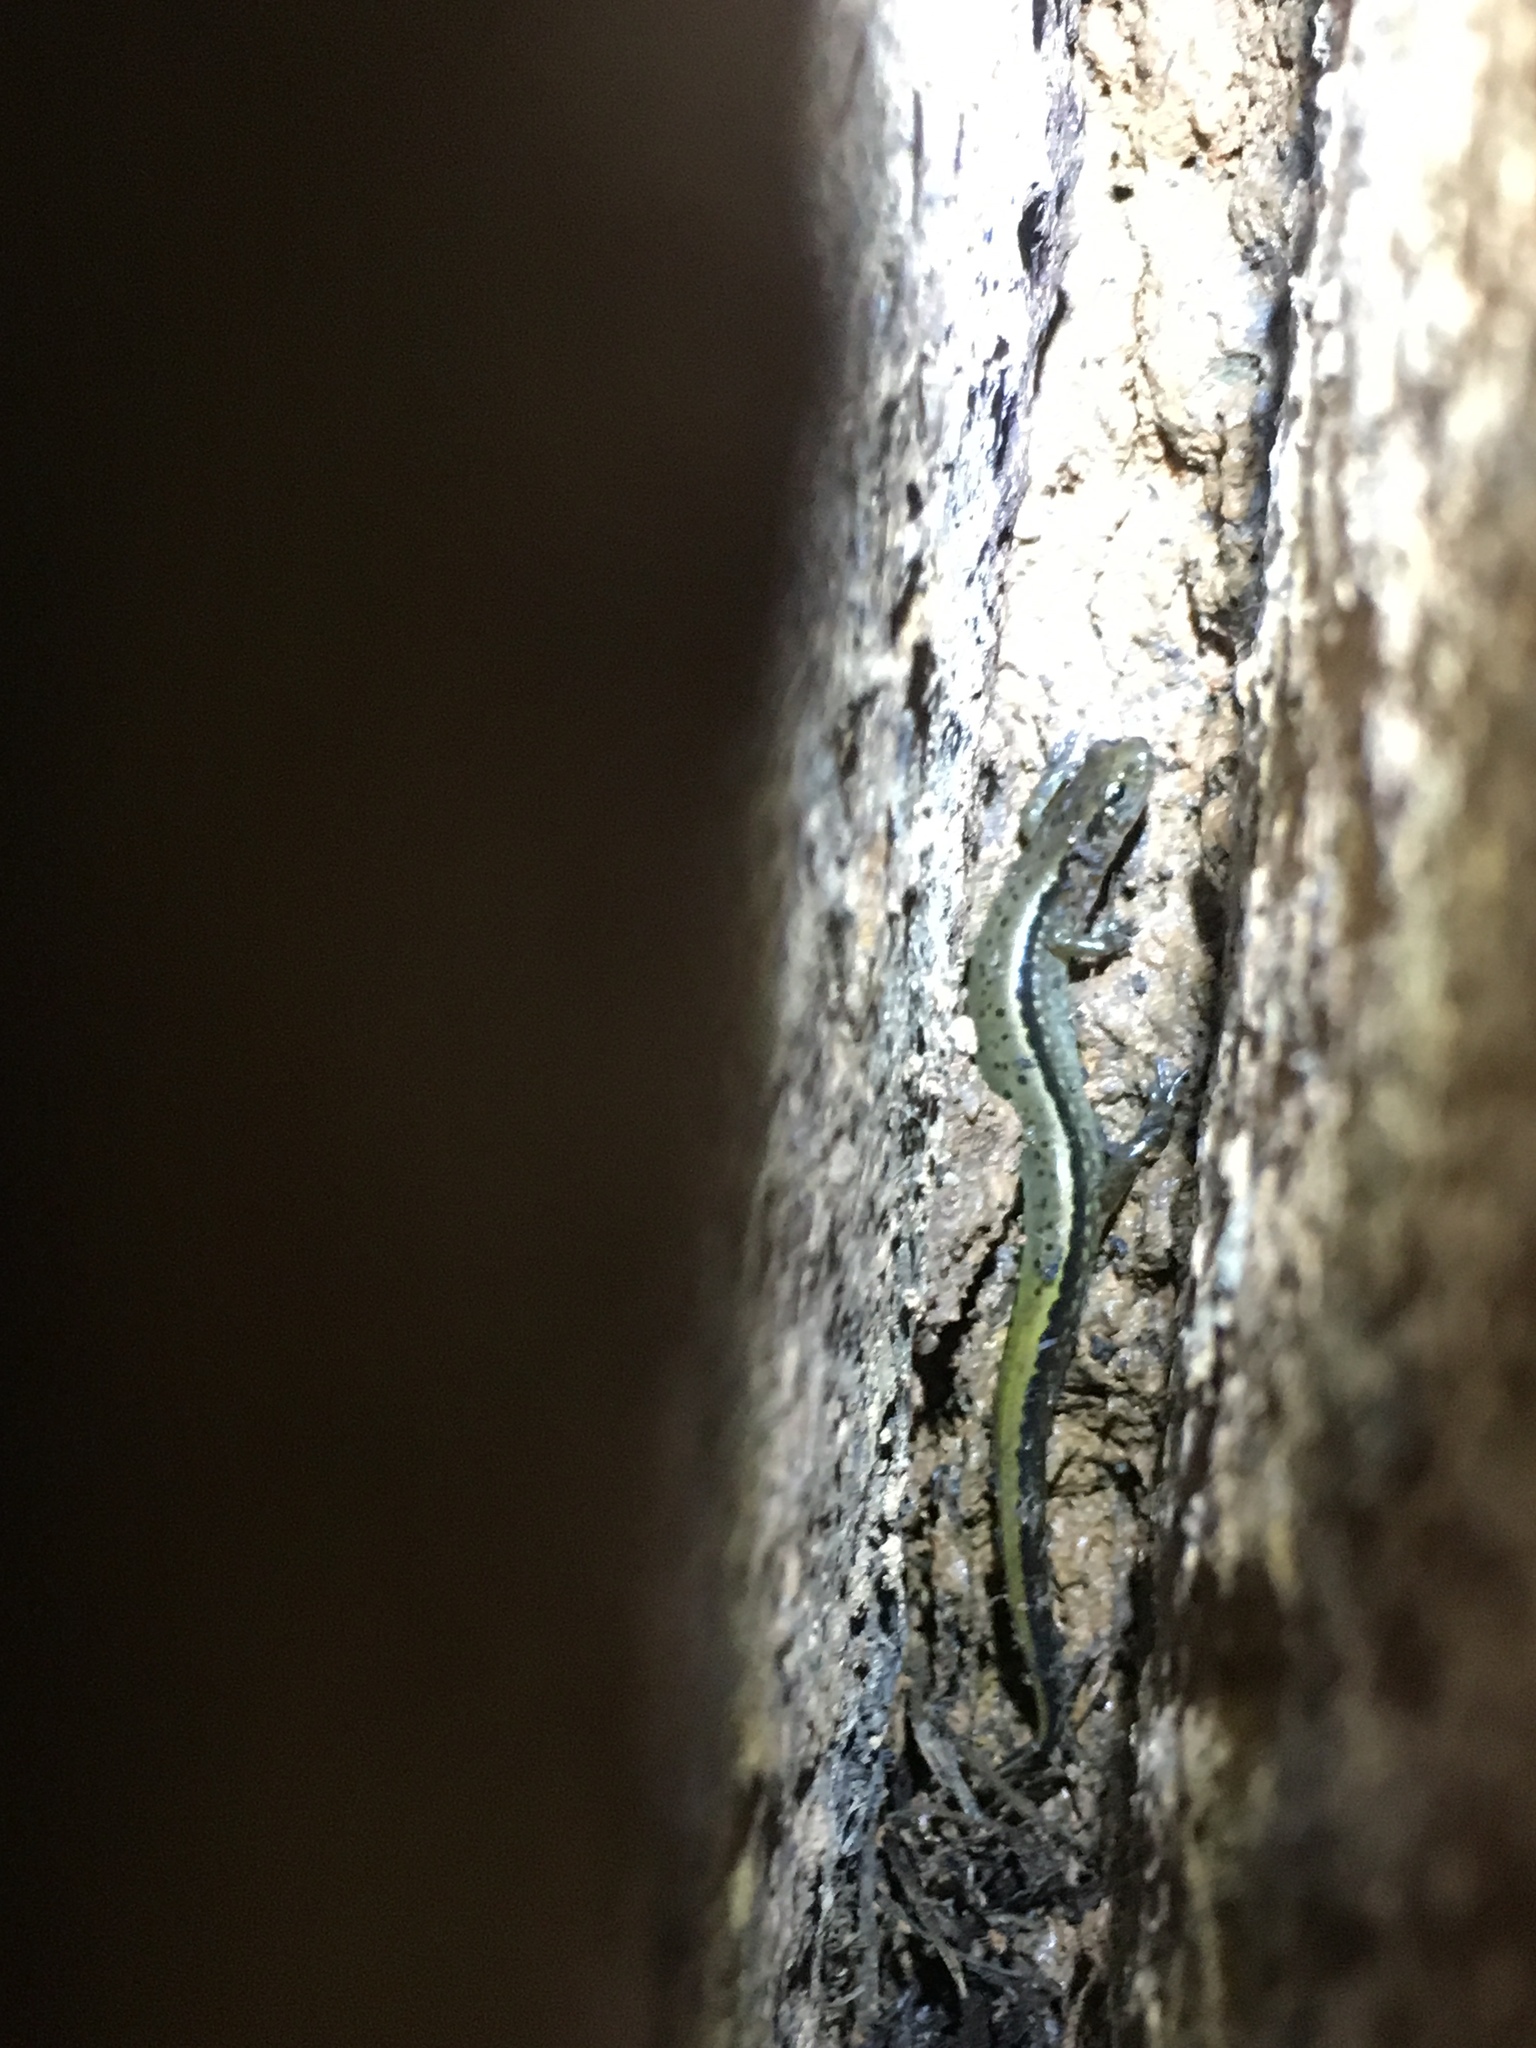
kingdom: Animalia
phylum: Chordata
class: Amphibia
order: Caudata
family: Plethodontidae
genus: Eurycea
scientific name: Eurycea cirrigera
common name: Southern two-lined salamander
